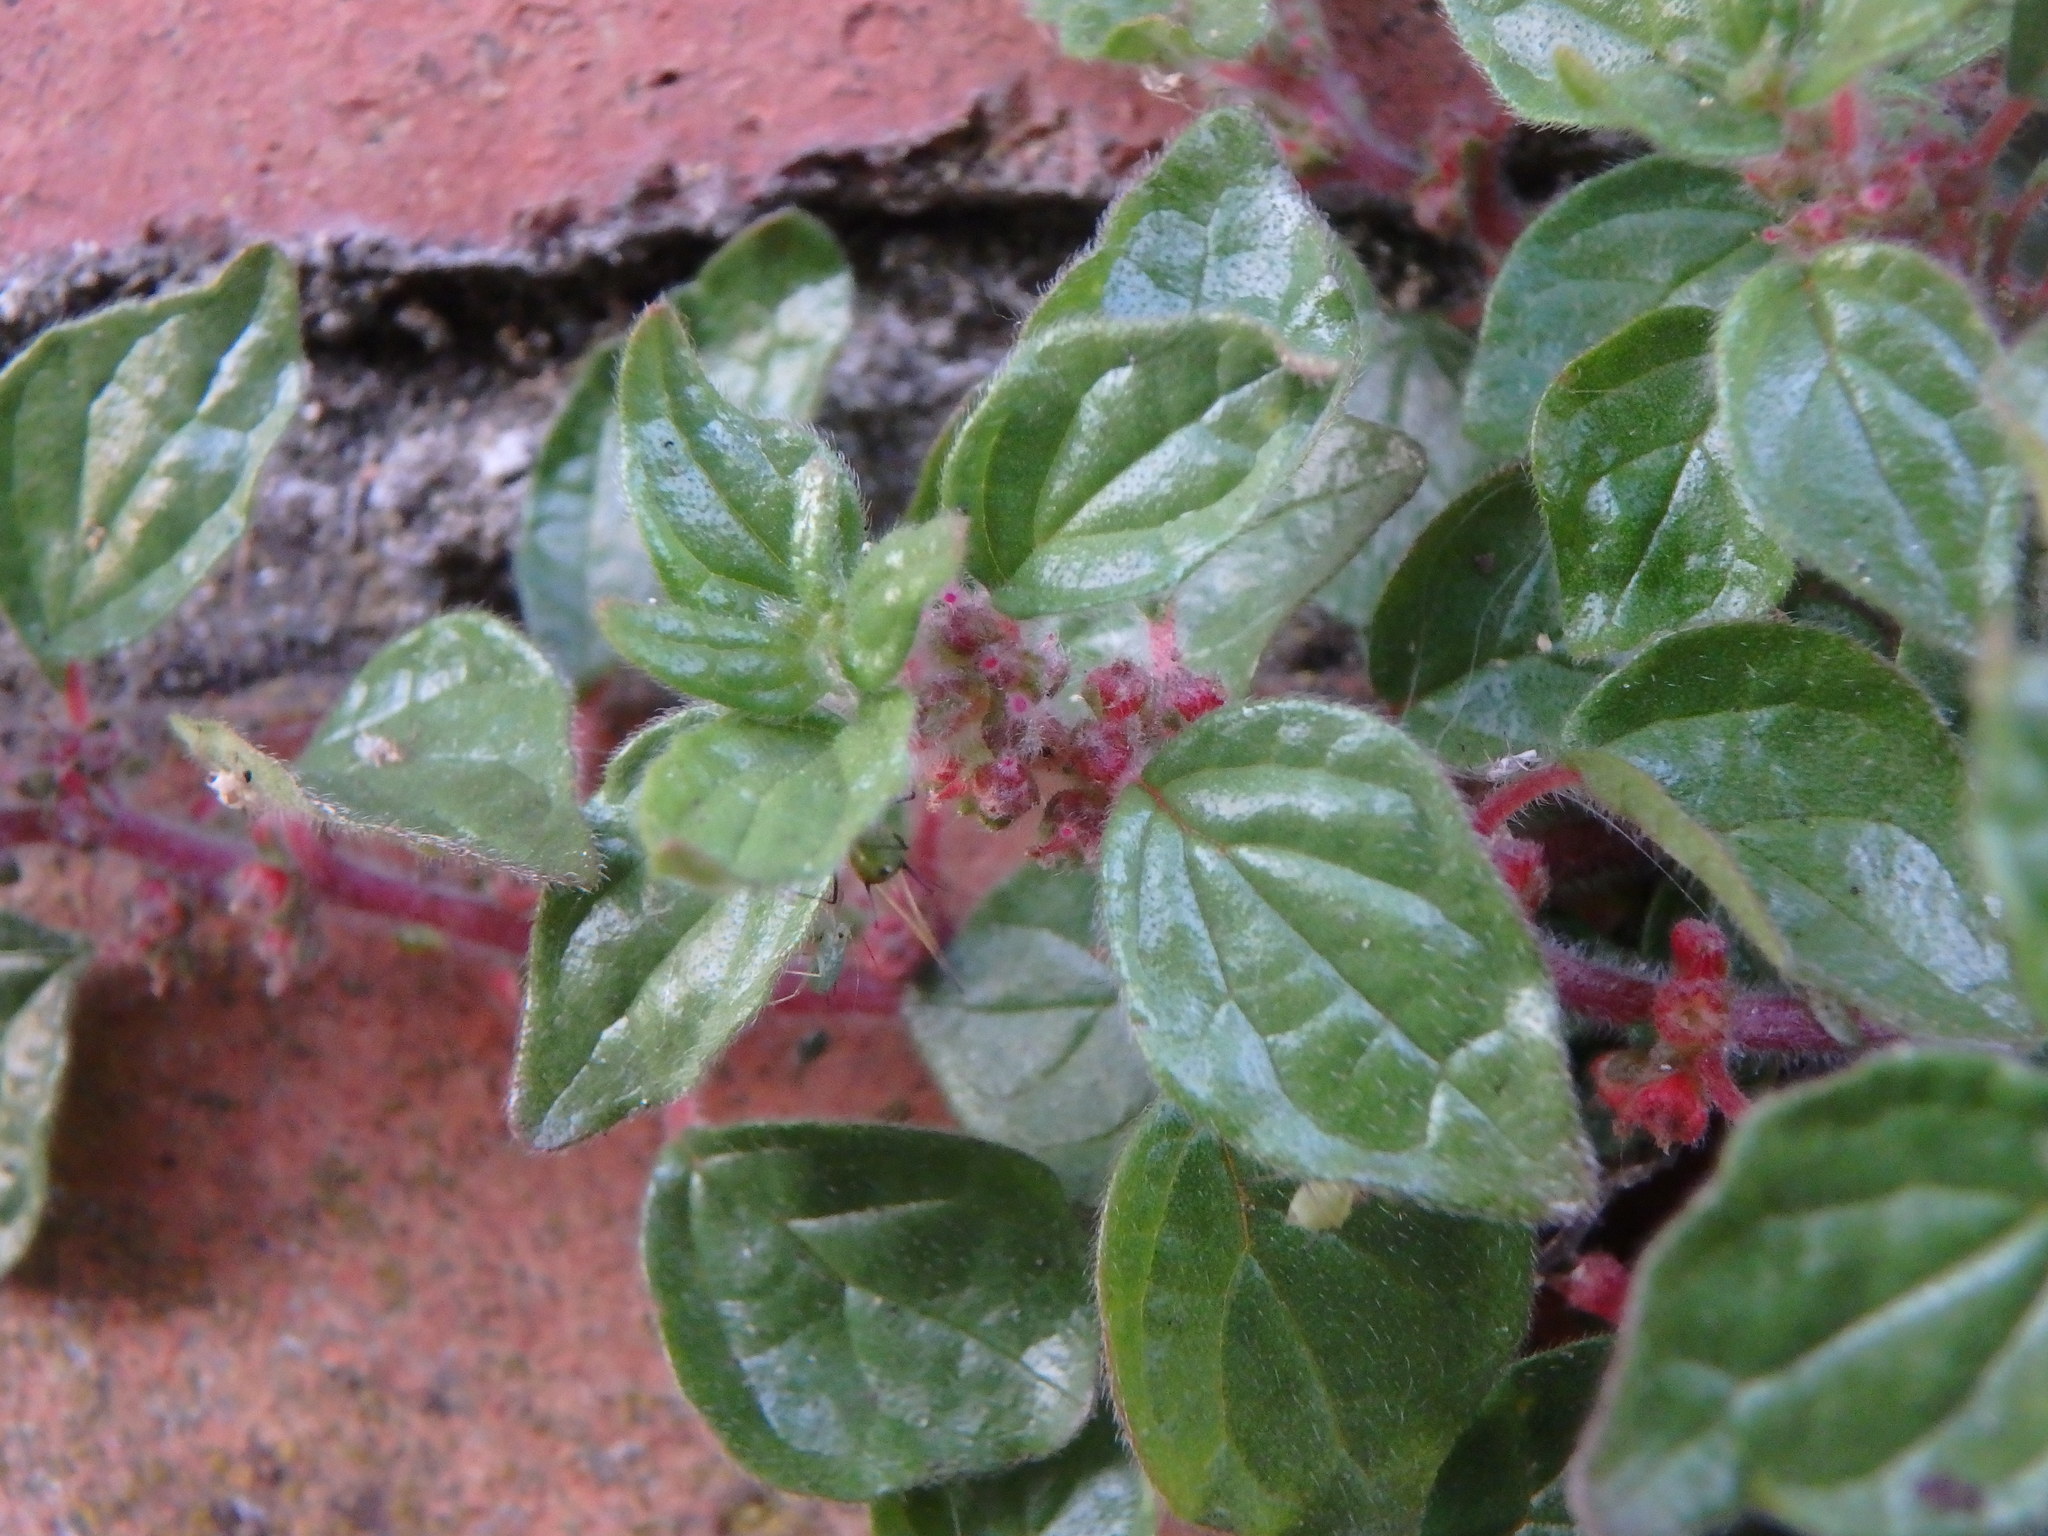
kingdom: Plantae
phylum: Tracheophyta
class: Magnoliopsida
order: Rosales
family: Urticaceae
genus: Parietaria
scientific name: Parietaria judaica
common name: Pellitory-of-the-wall
